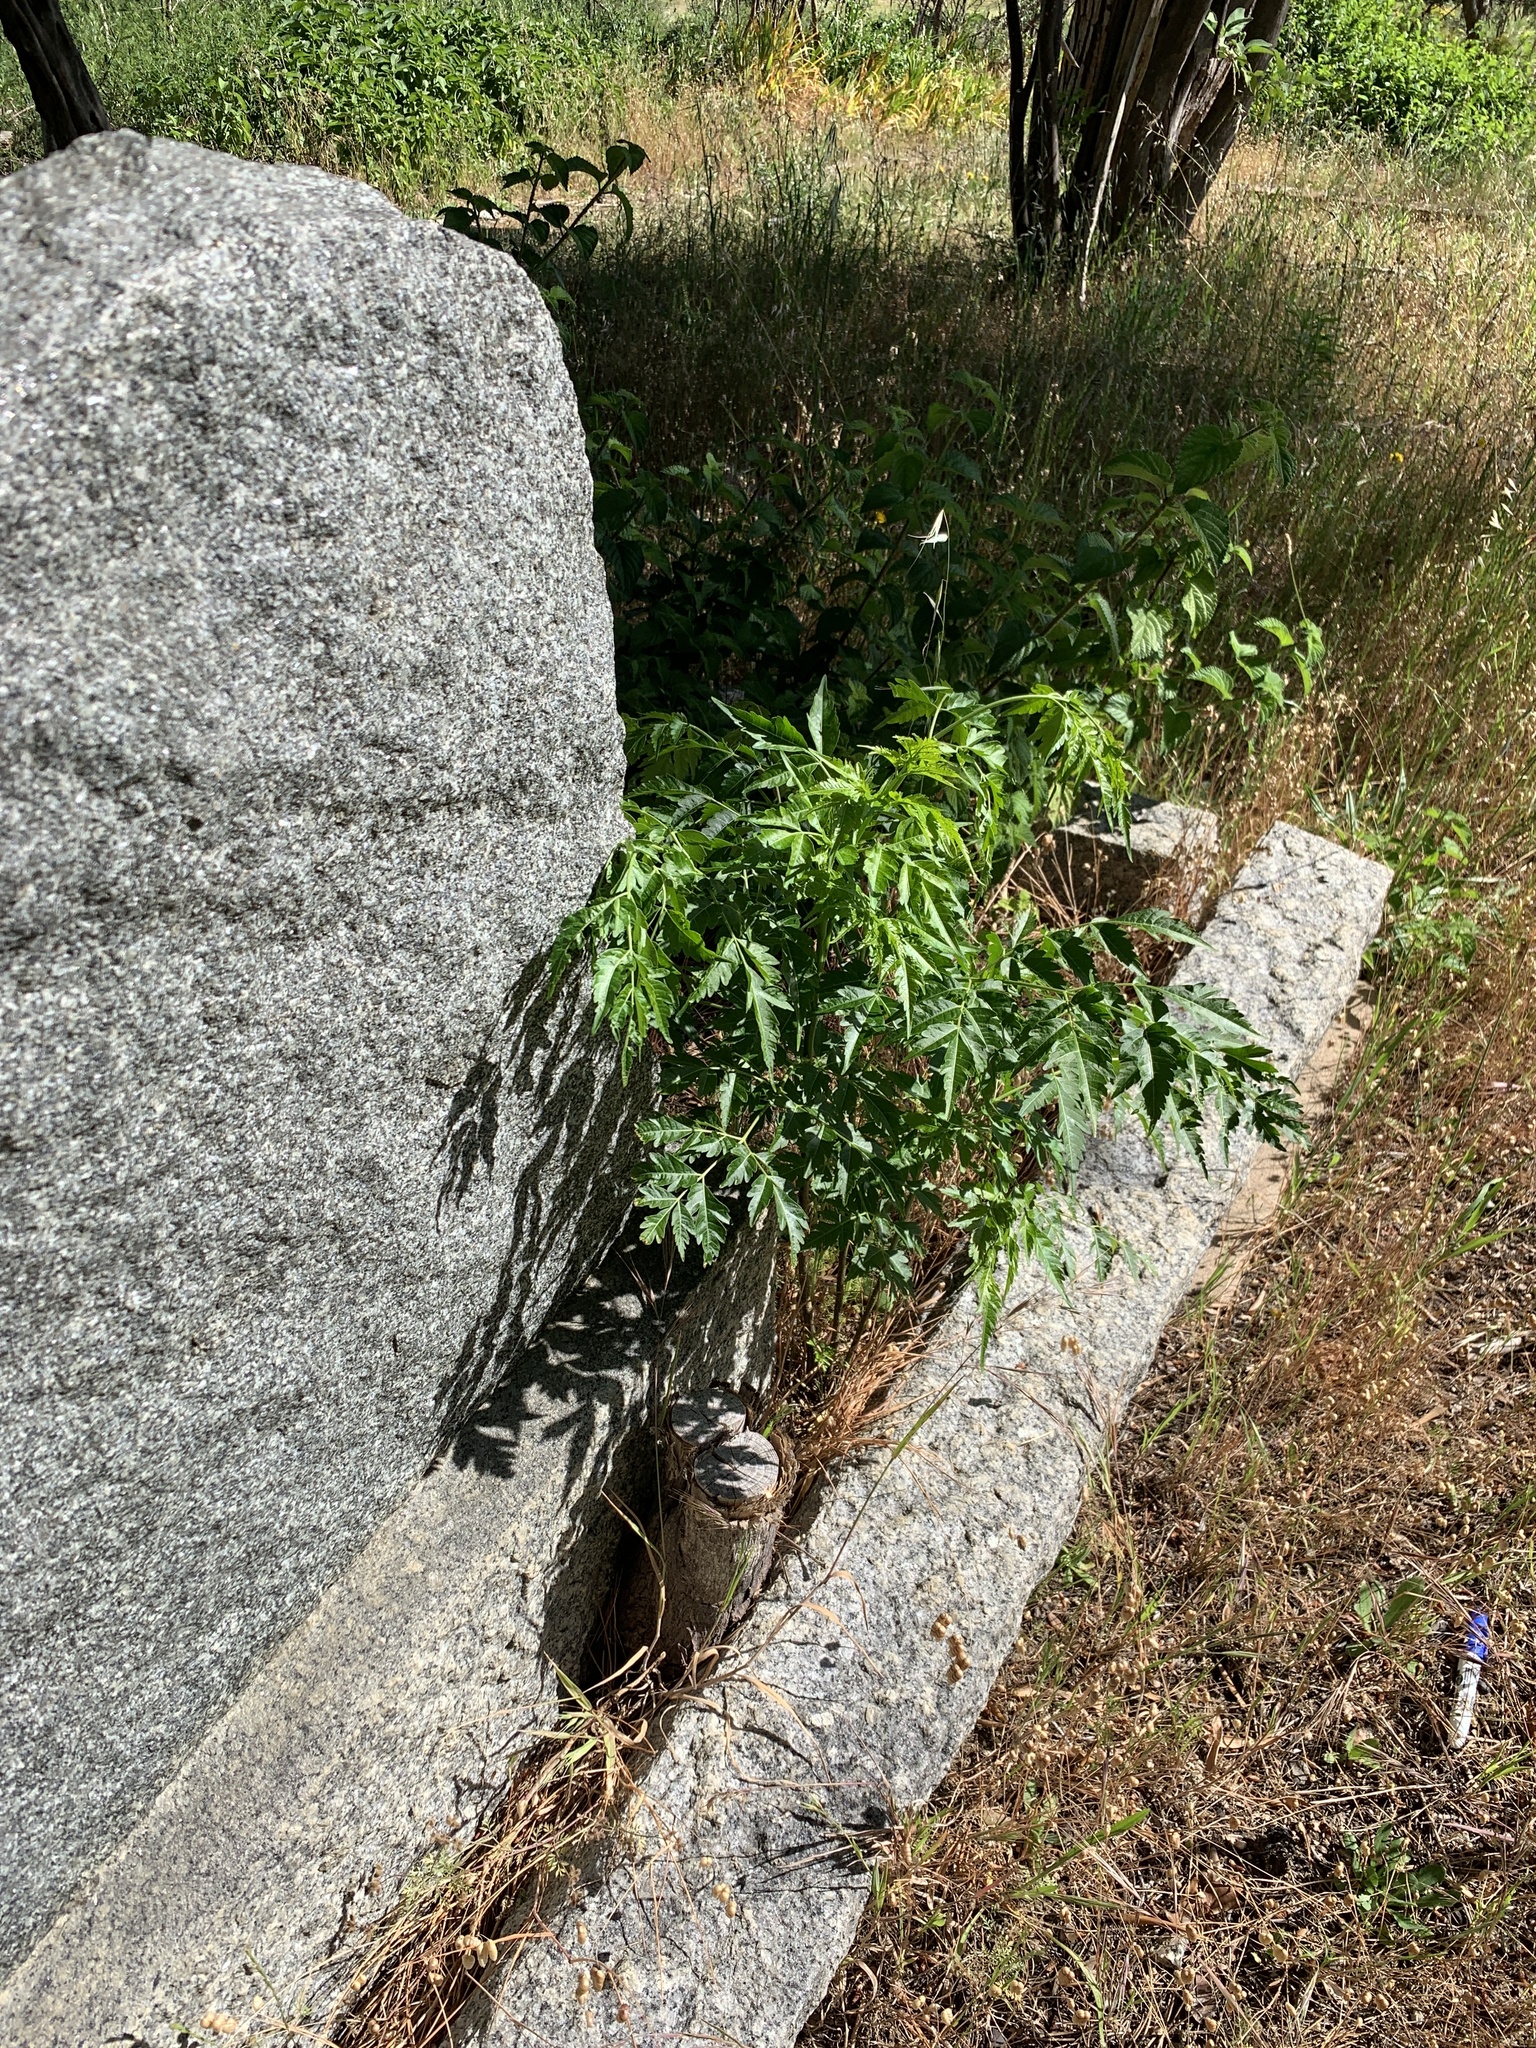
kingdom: Plantae
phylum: Tracheophyta
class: Magnoliopsida
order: Sapindales
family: Meliaceae
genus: Melia
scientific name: Melia azedarach
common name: Chinaberrytree
